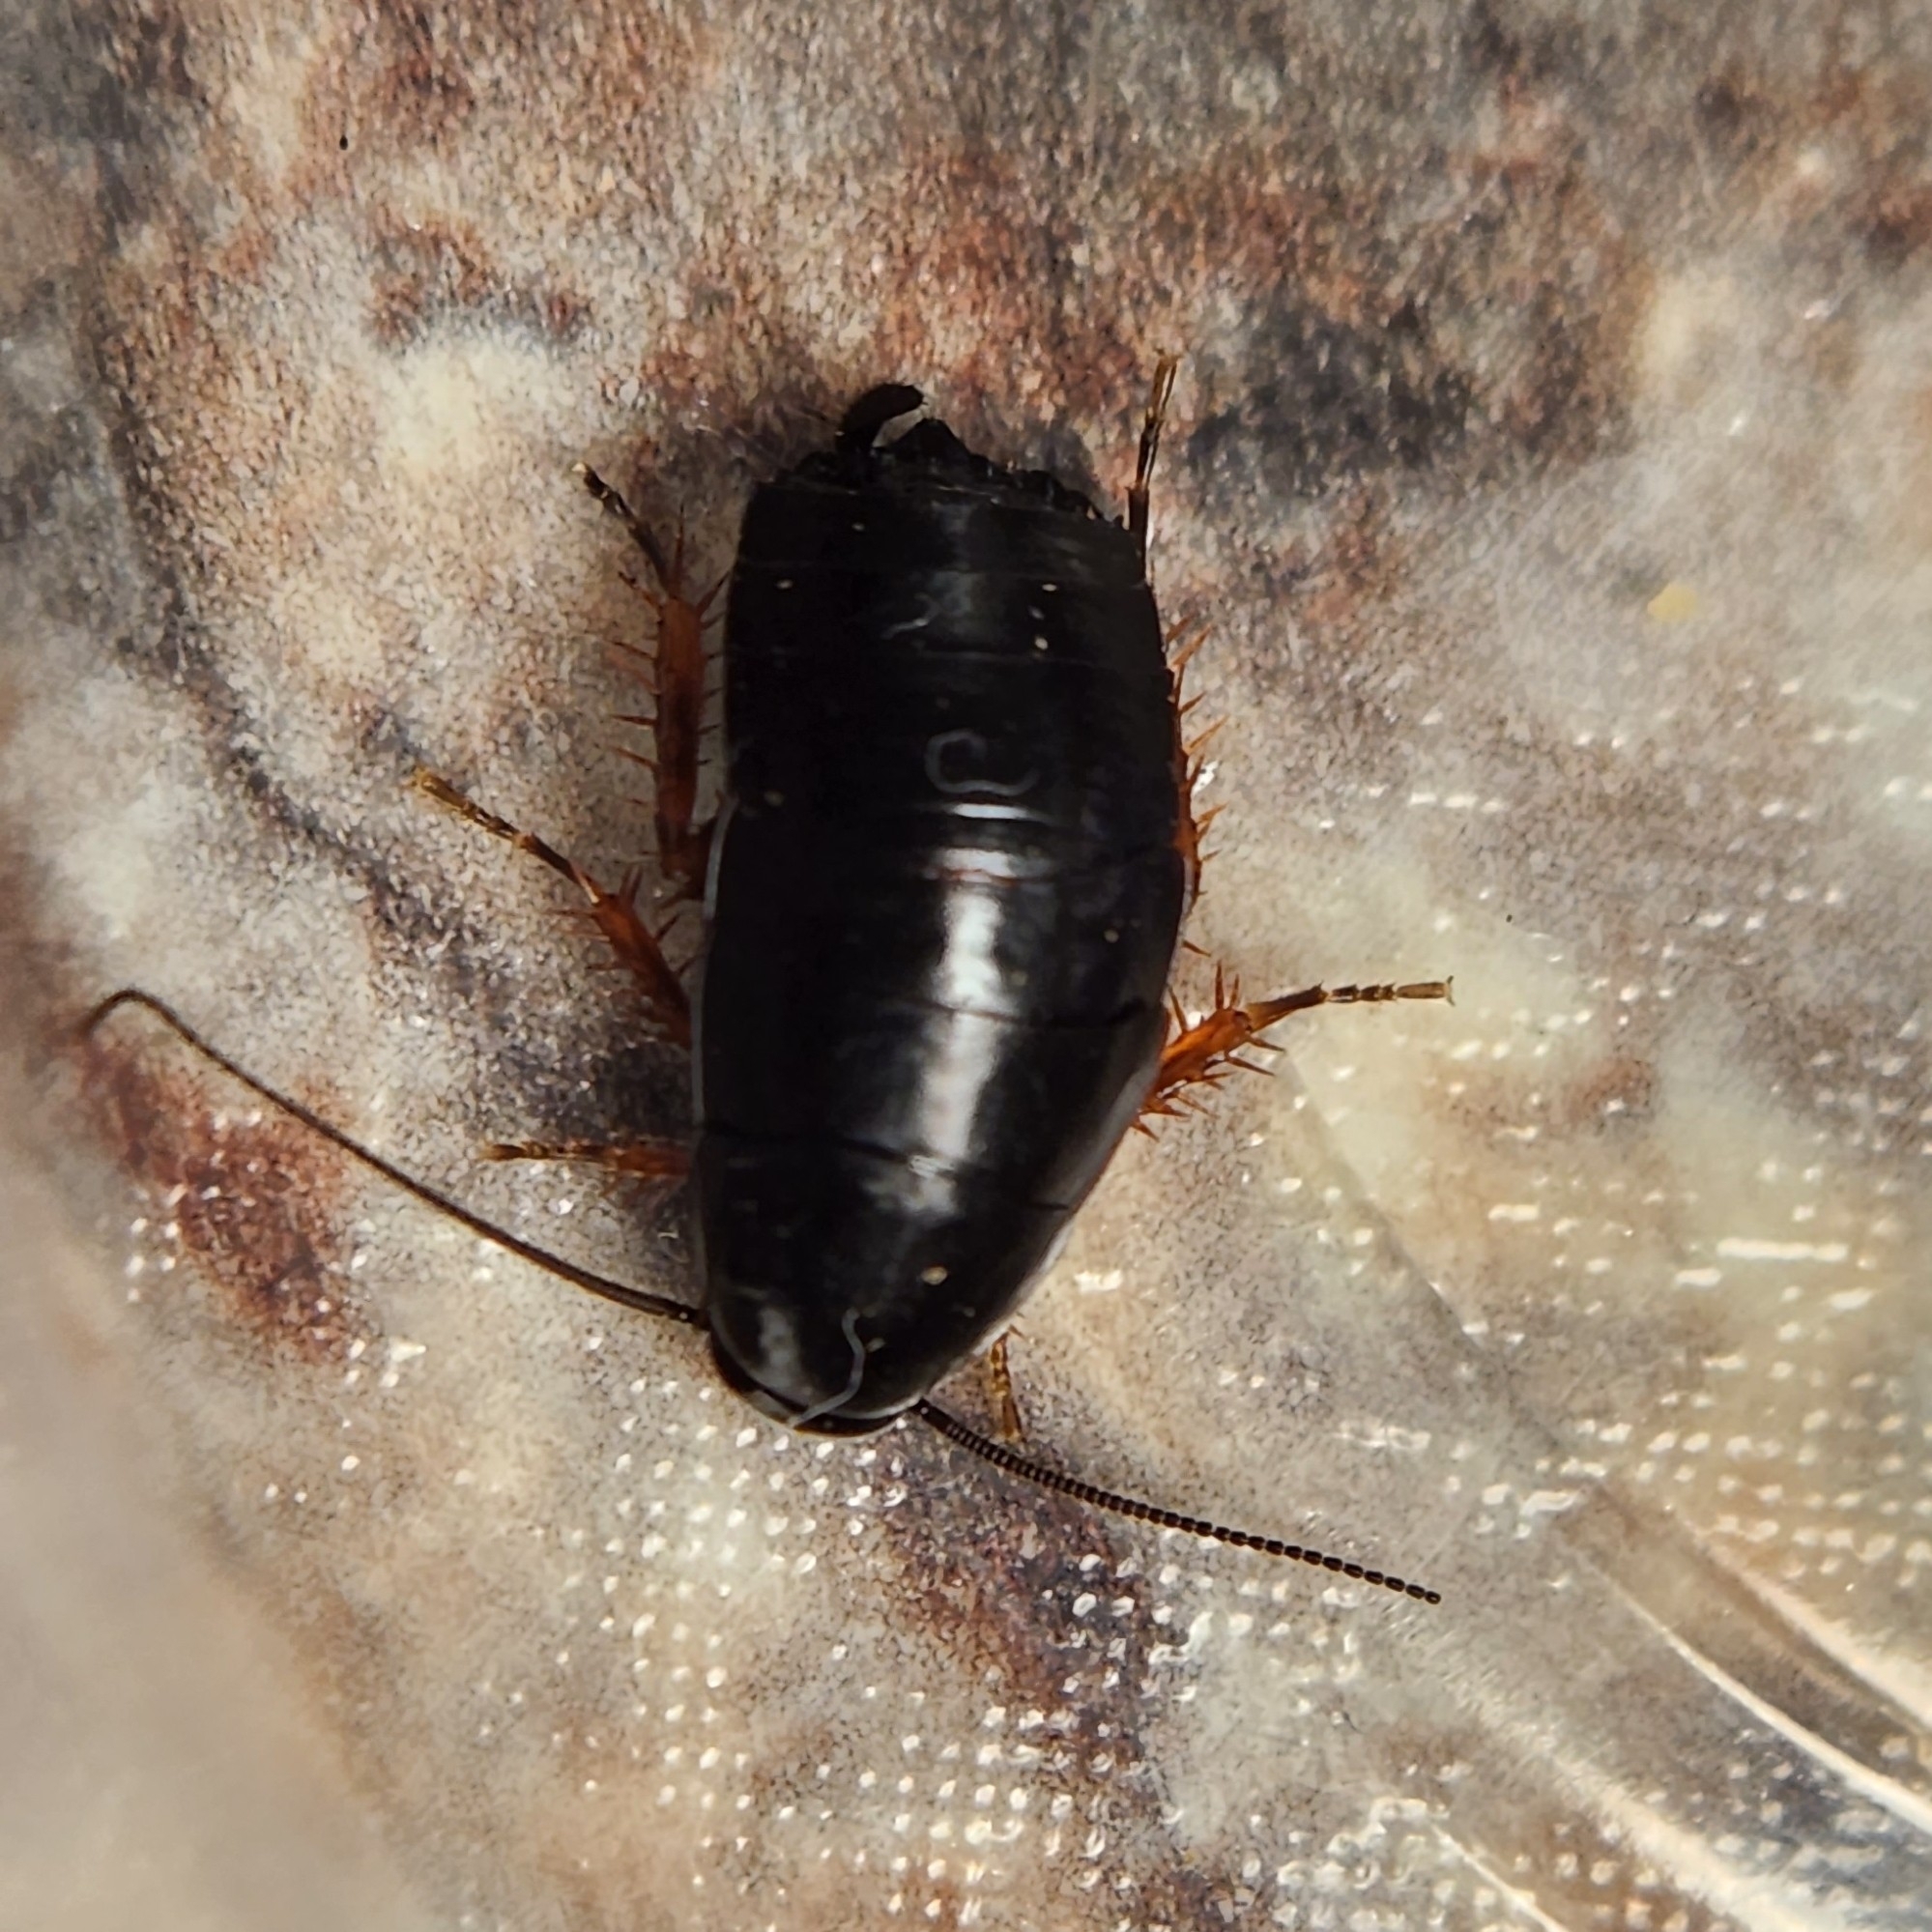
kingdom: Animalia
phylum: Arthropoda
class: Insecta
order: Blattodea
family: Ectobiidae
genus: Ischnoptera
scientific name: Ischnoptera deropeltiformis
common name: Dark wood cockroach
